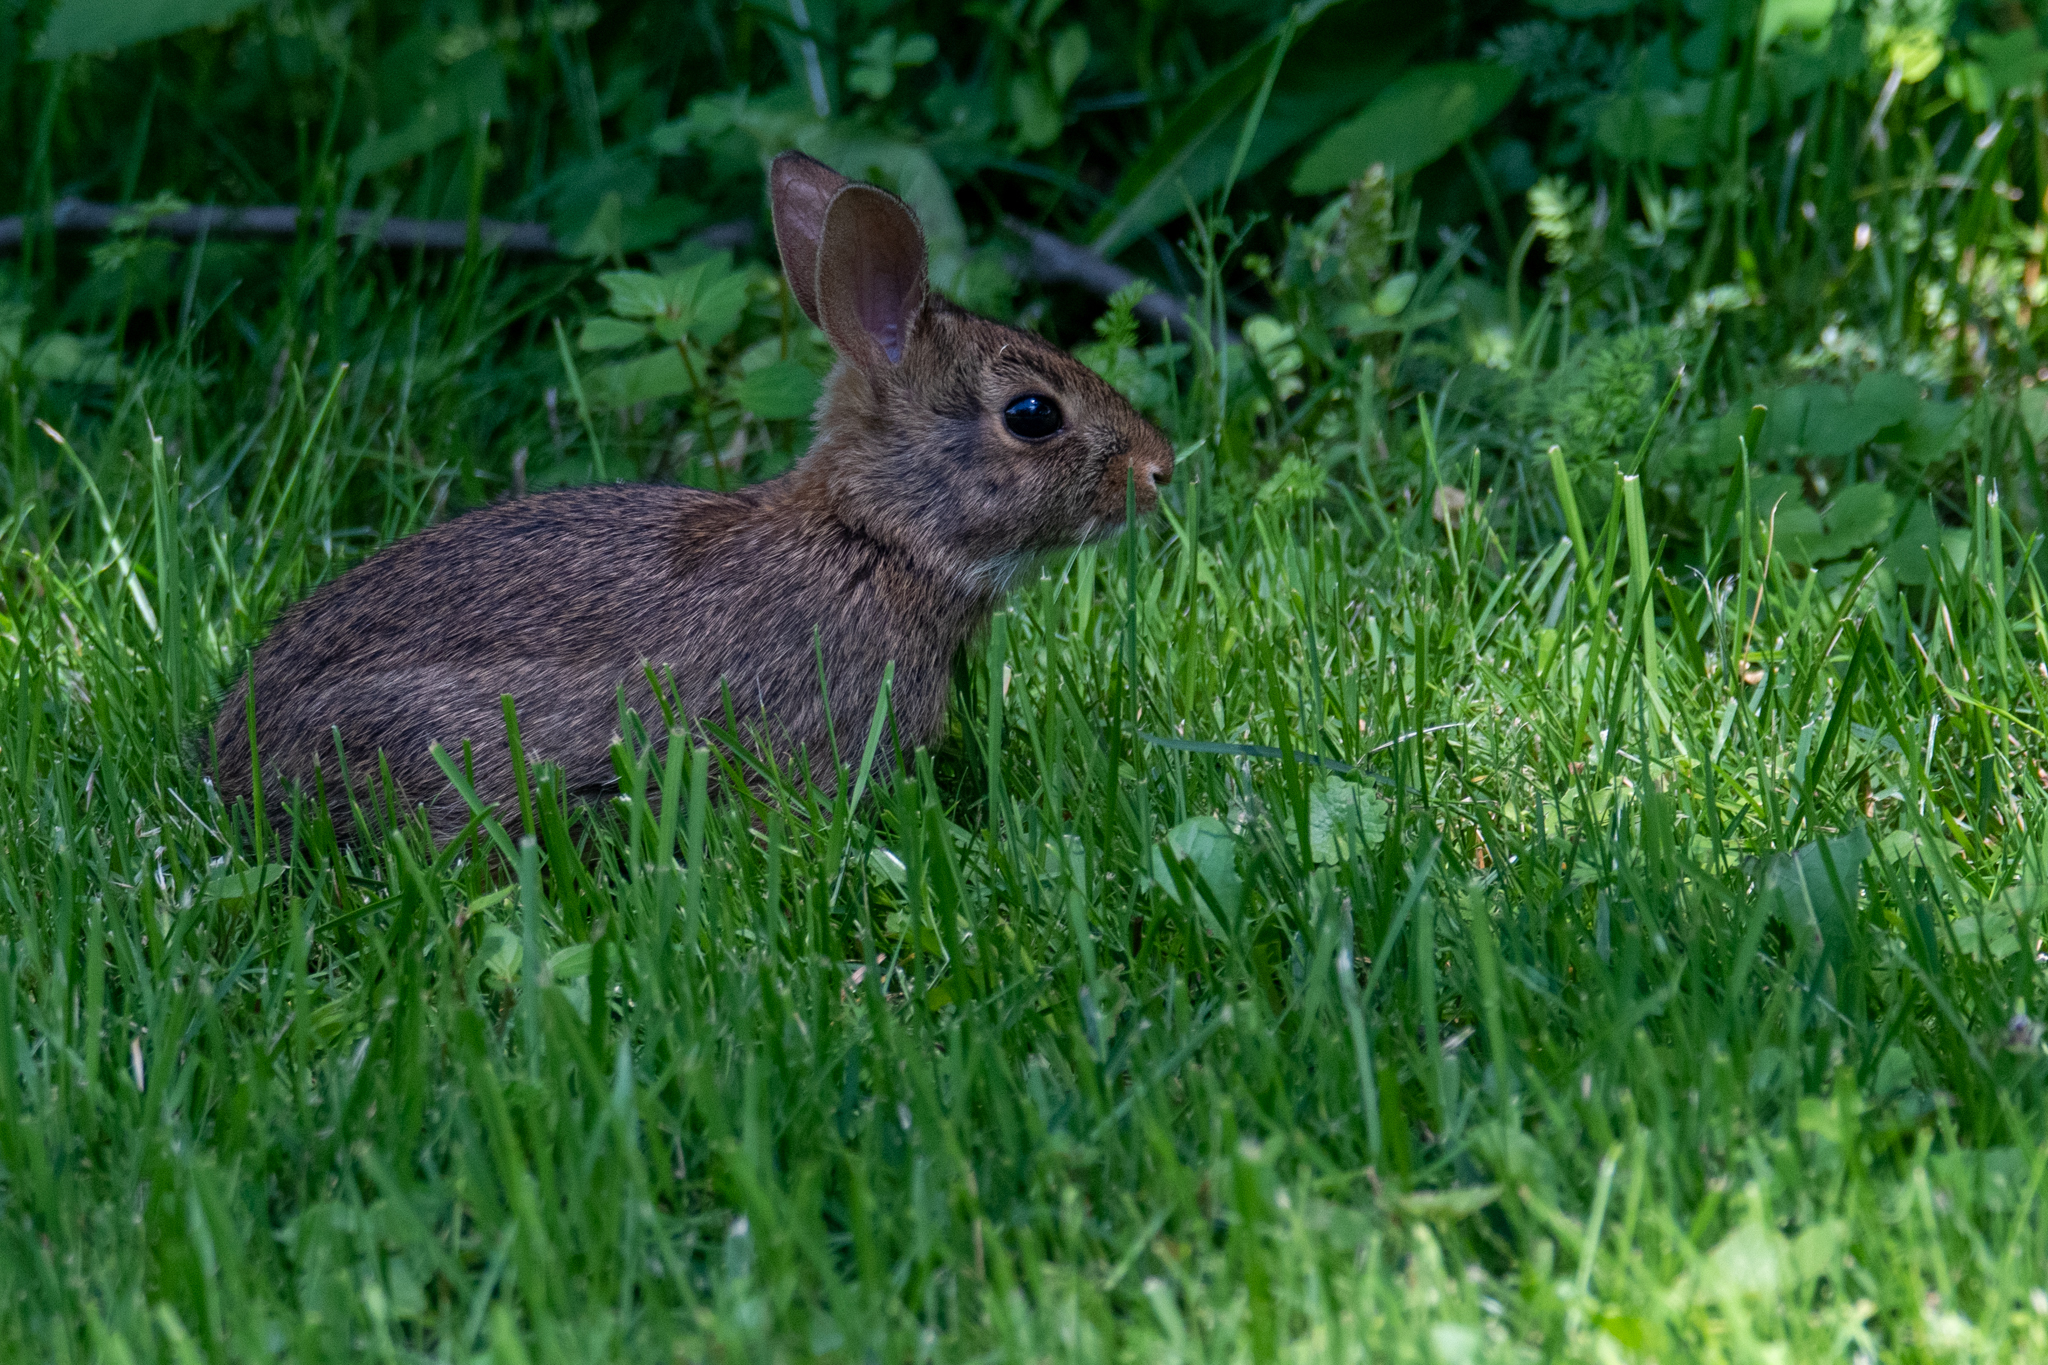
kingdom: Animalia
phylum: Chordata
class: Mammalia
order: Lagomorpha
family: Leporidae
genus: Sylvilagus
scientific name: Sylvilagus floridanus
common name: Eastern cottontail
